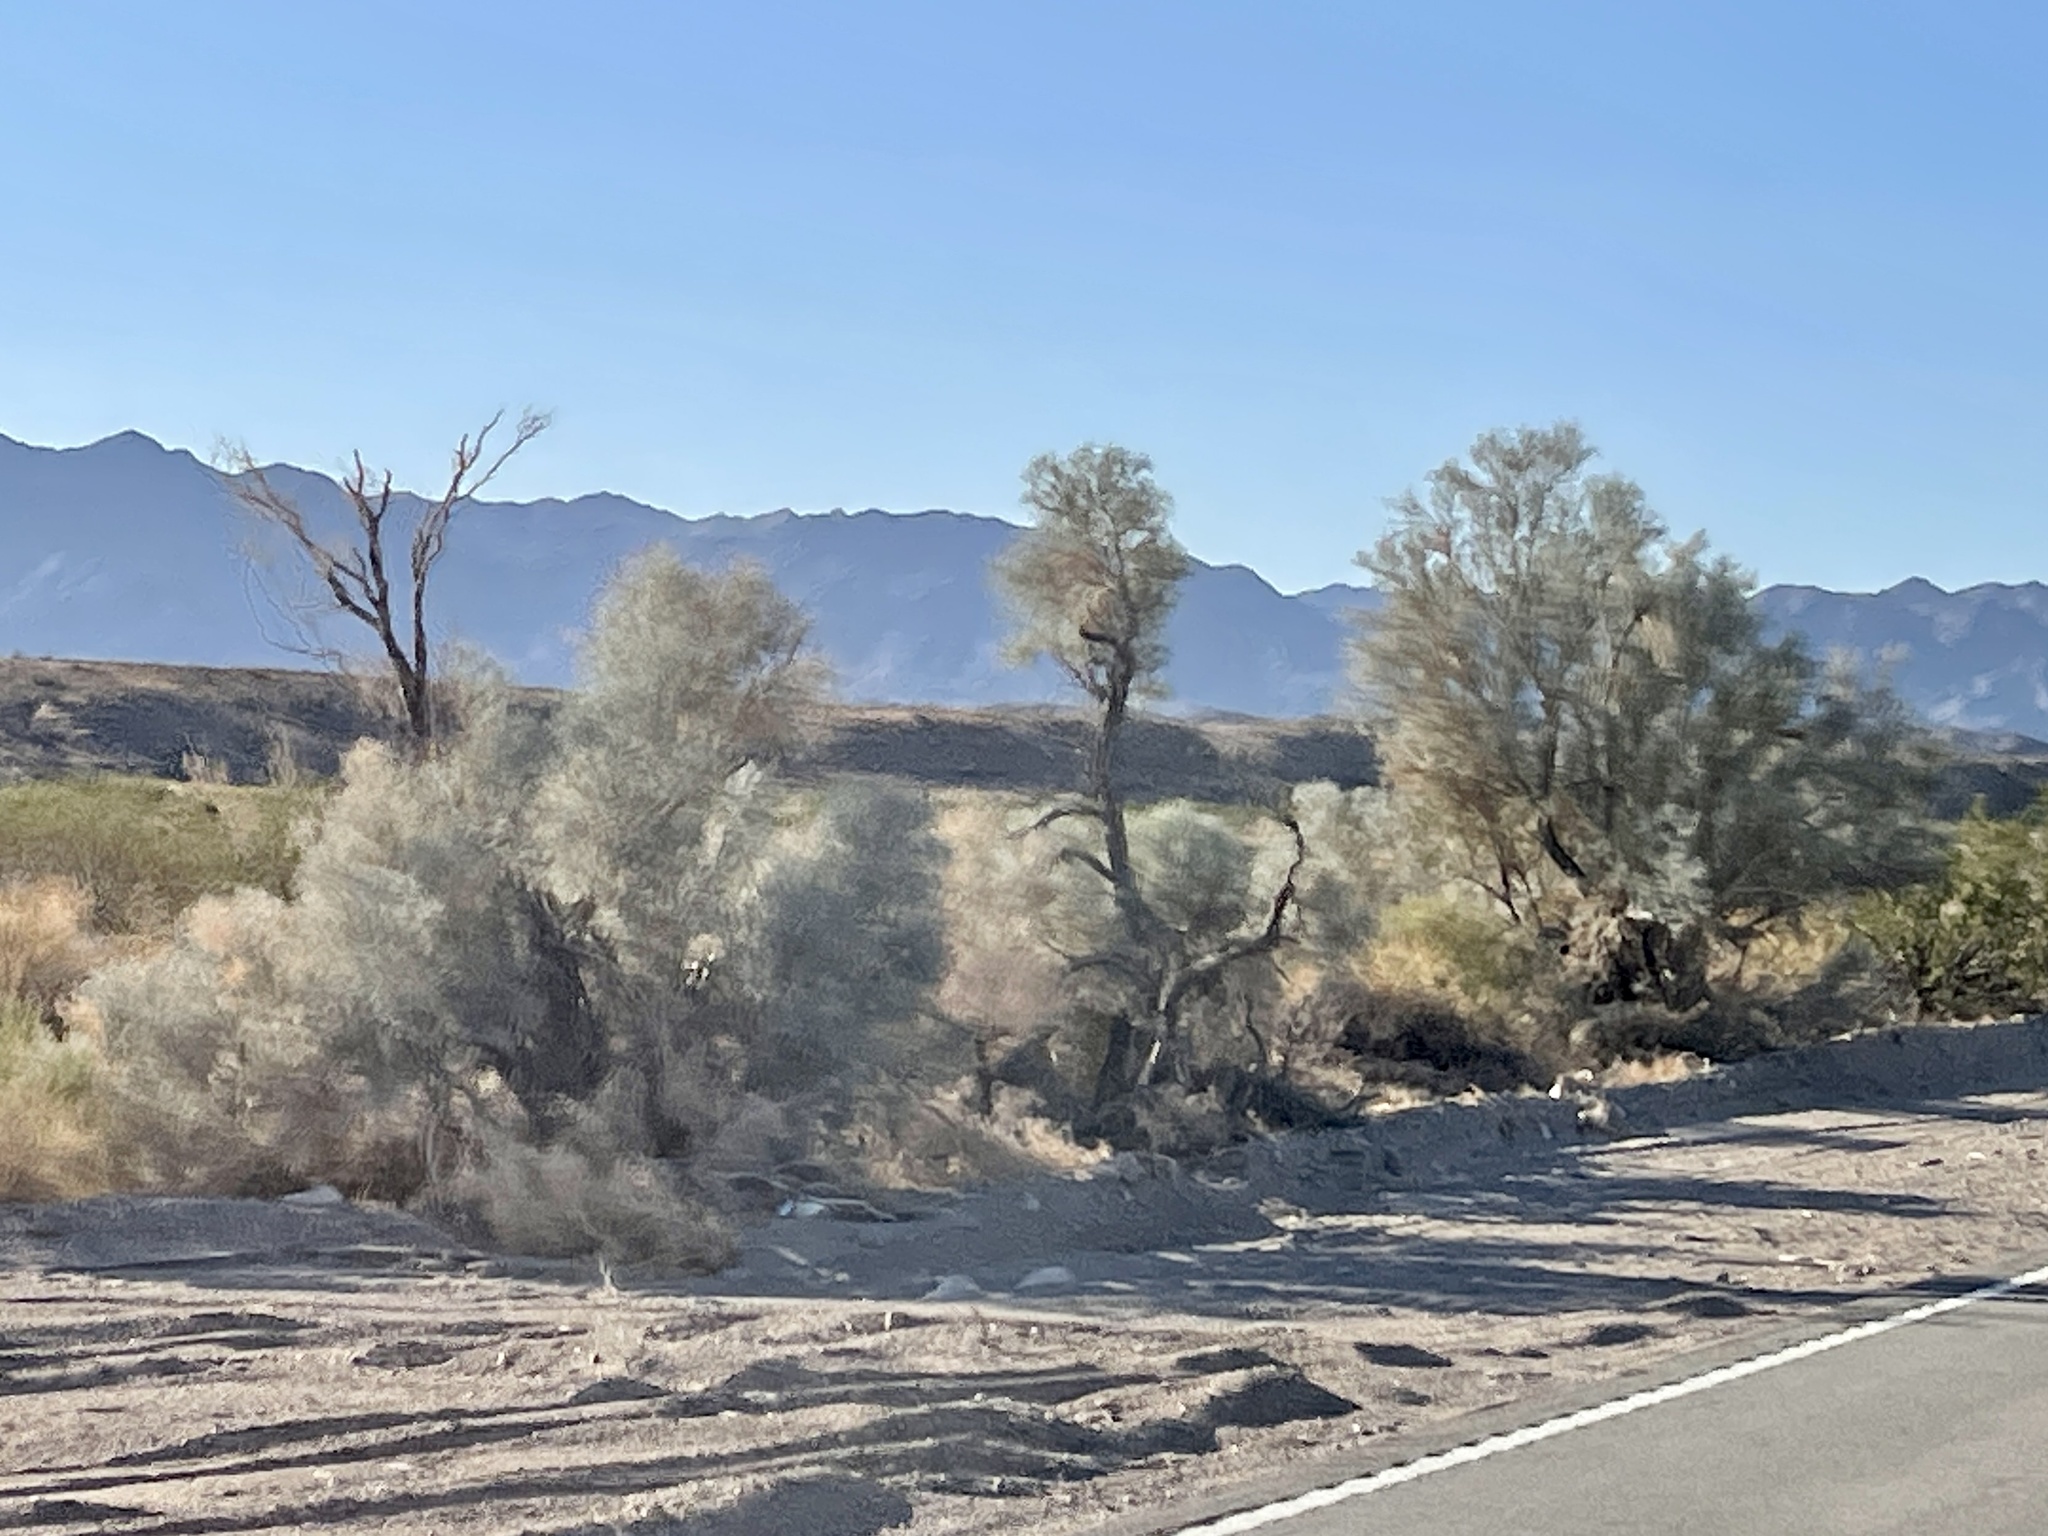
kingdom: Plantae
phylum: Tracheophyta
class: Magnoliopsida
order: Fabales
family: Fabaceae
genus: Psorothamnus
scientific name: Psorothamnus spinosus
